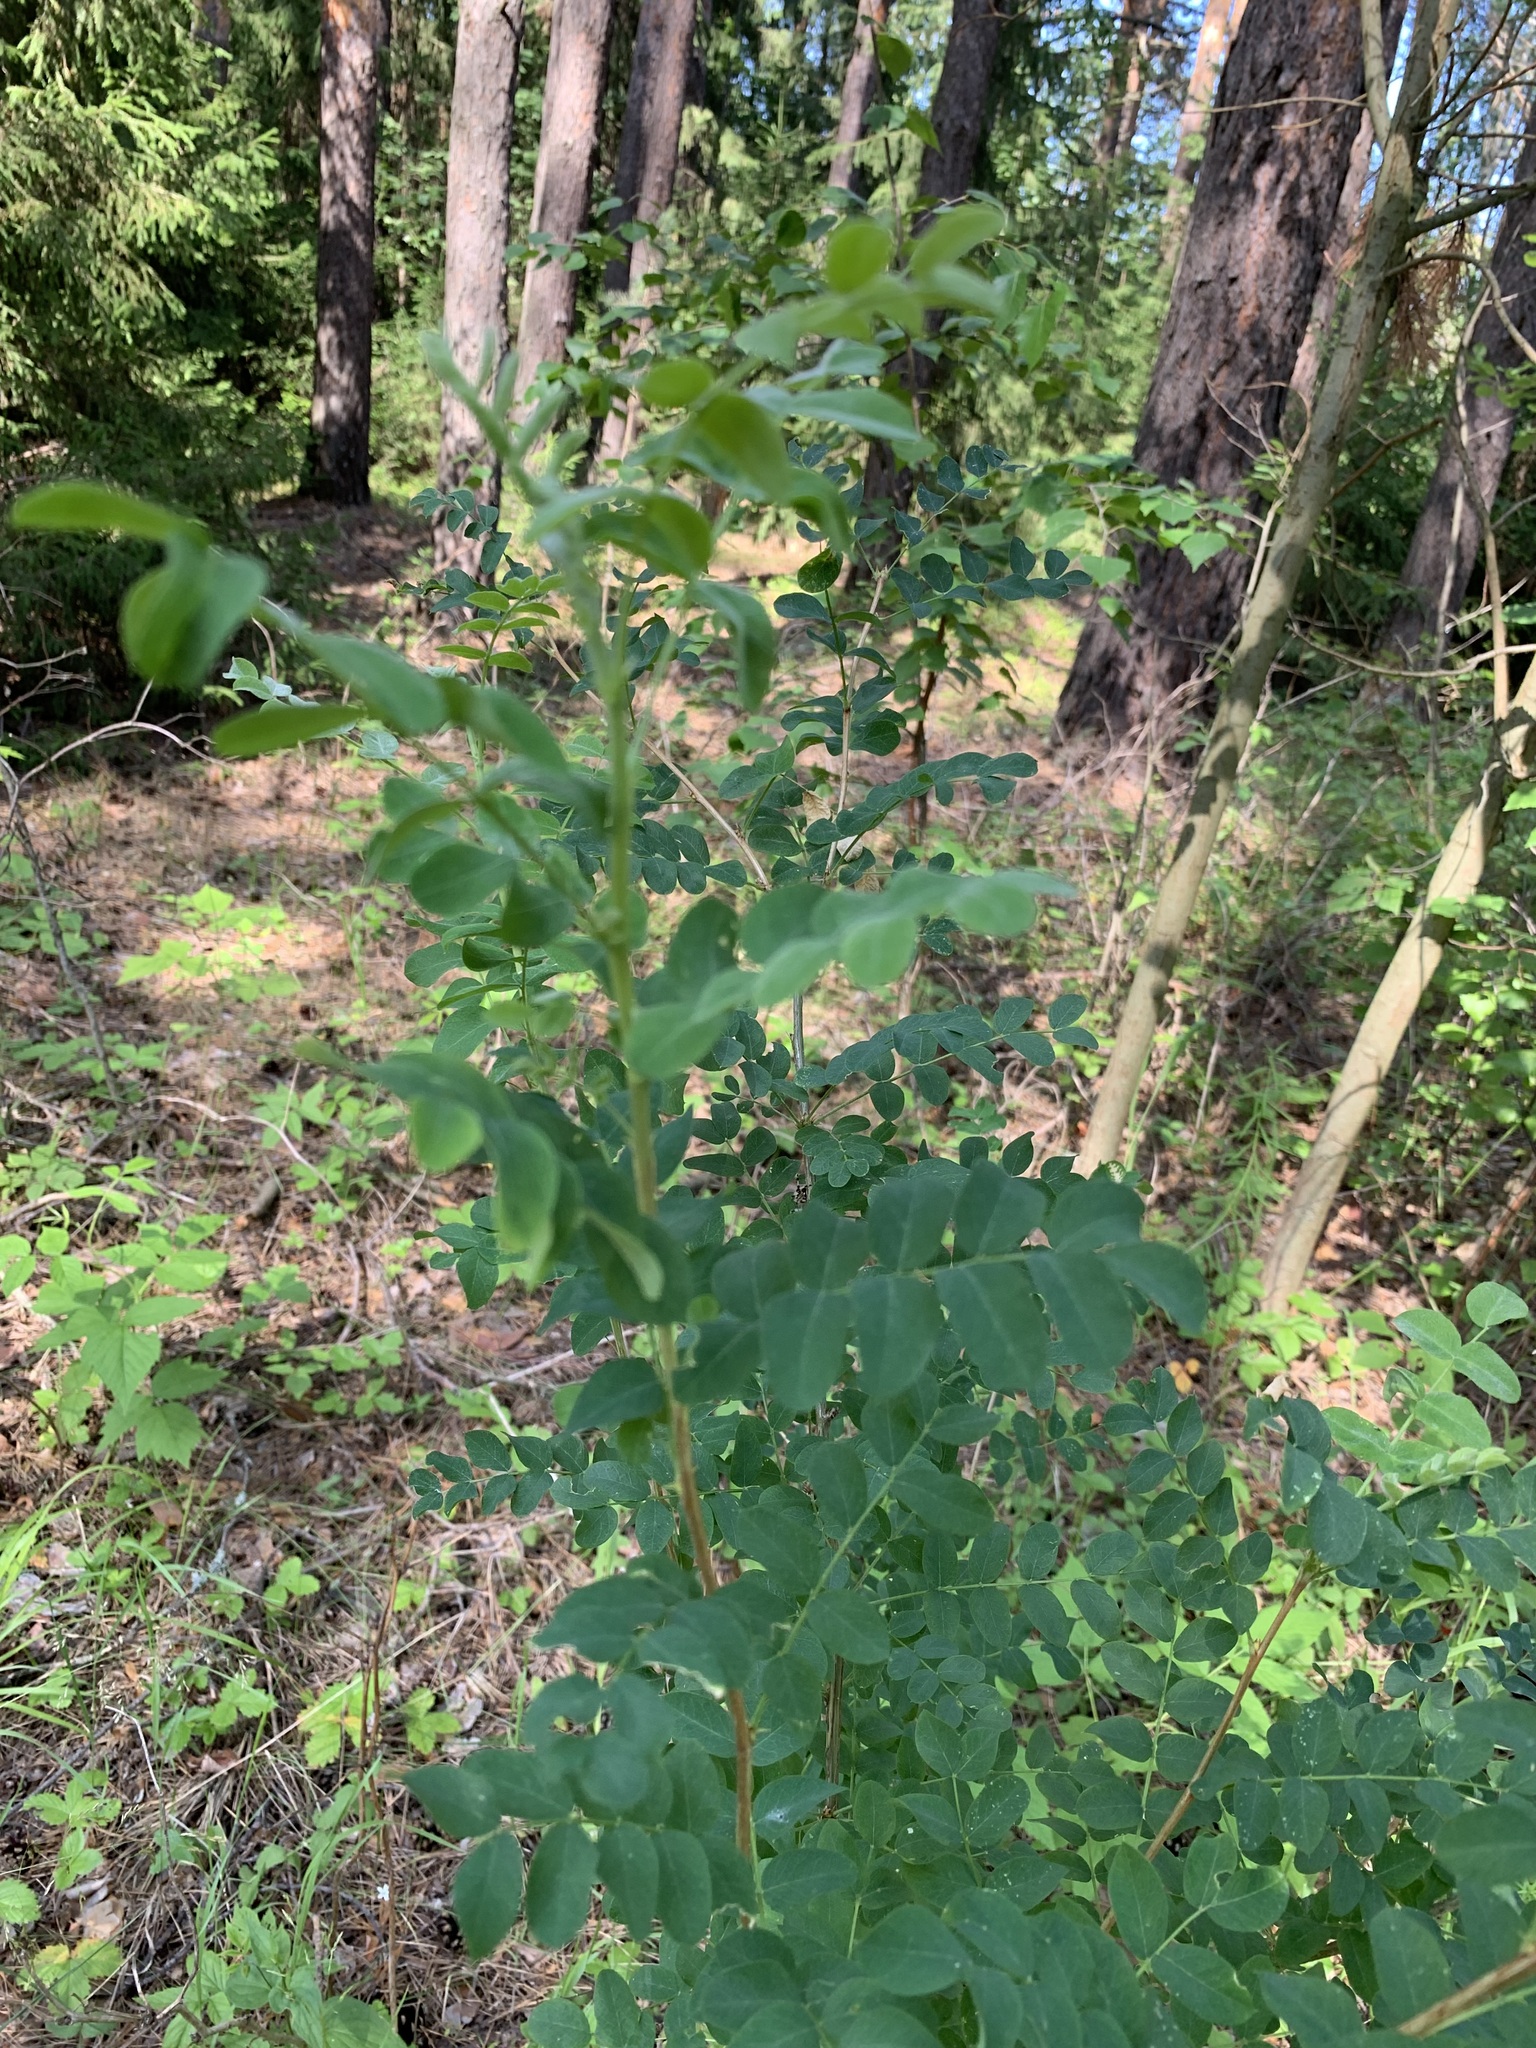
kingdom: Plantae
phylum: Tracheophyta
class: Magnoliopsida
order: Fabales
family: Fabaceae
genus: Caragana
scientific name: Caragana arborescens
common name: Siberian peashrub
